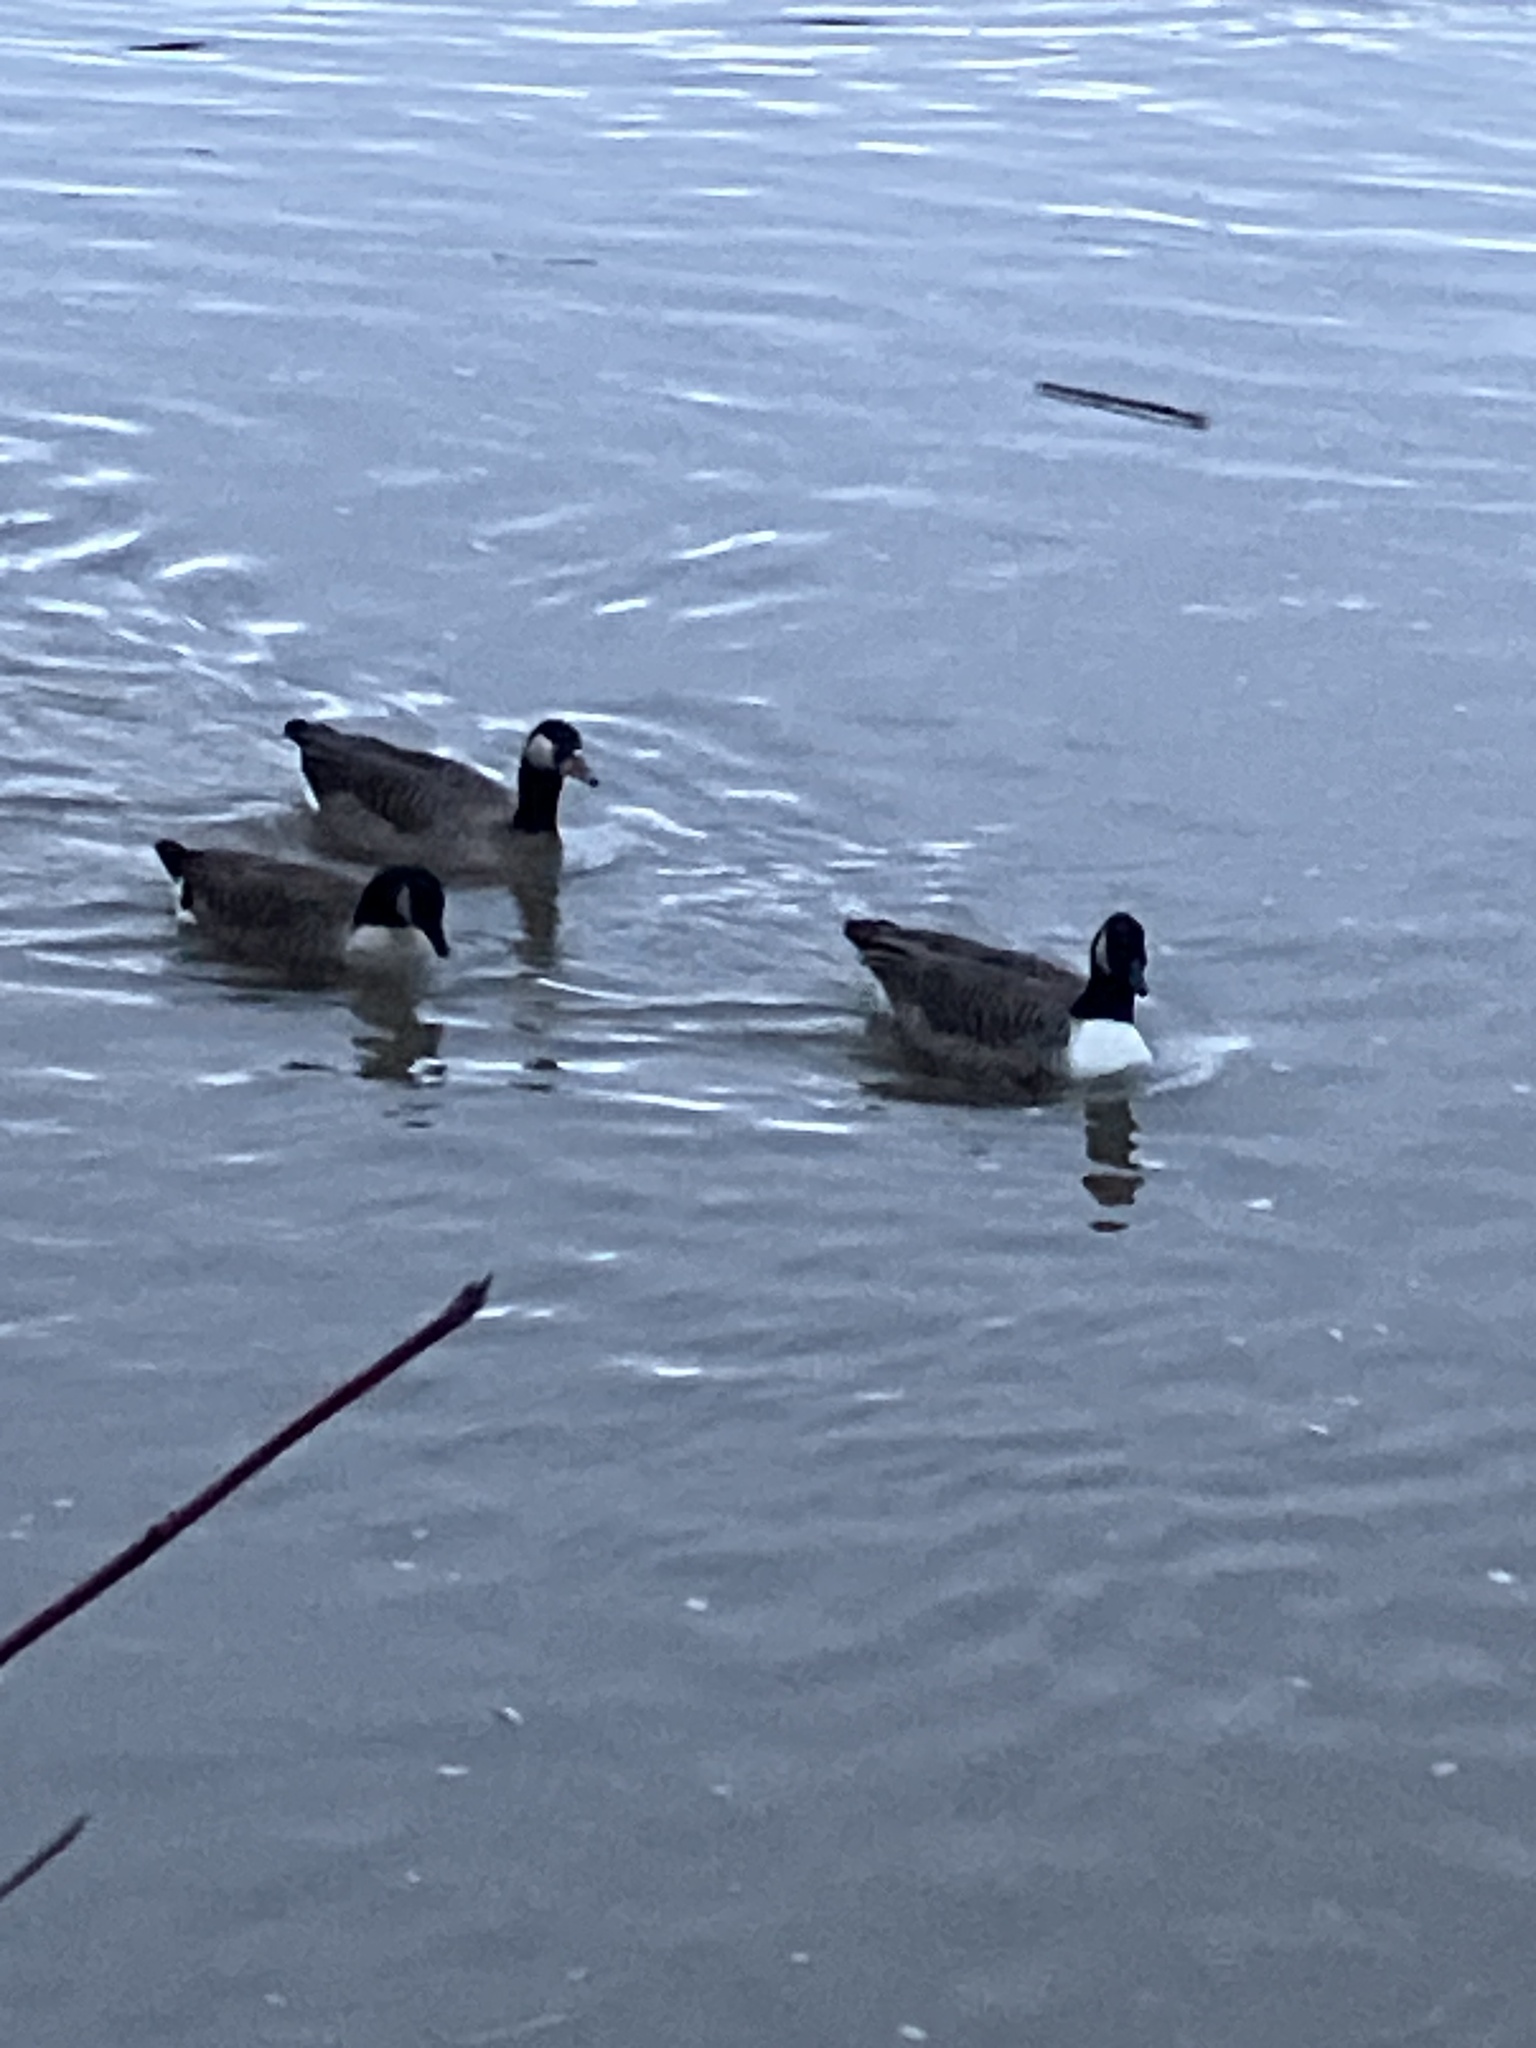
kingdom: Animalia
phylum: Chordata
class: Aves
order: Anseriformes
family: Anatidae
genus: Branta
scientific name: Branta canadensis
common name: Canada goose
